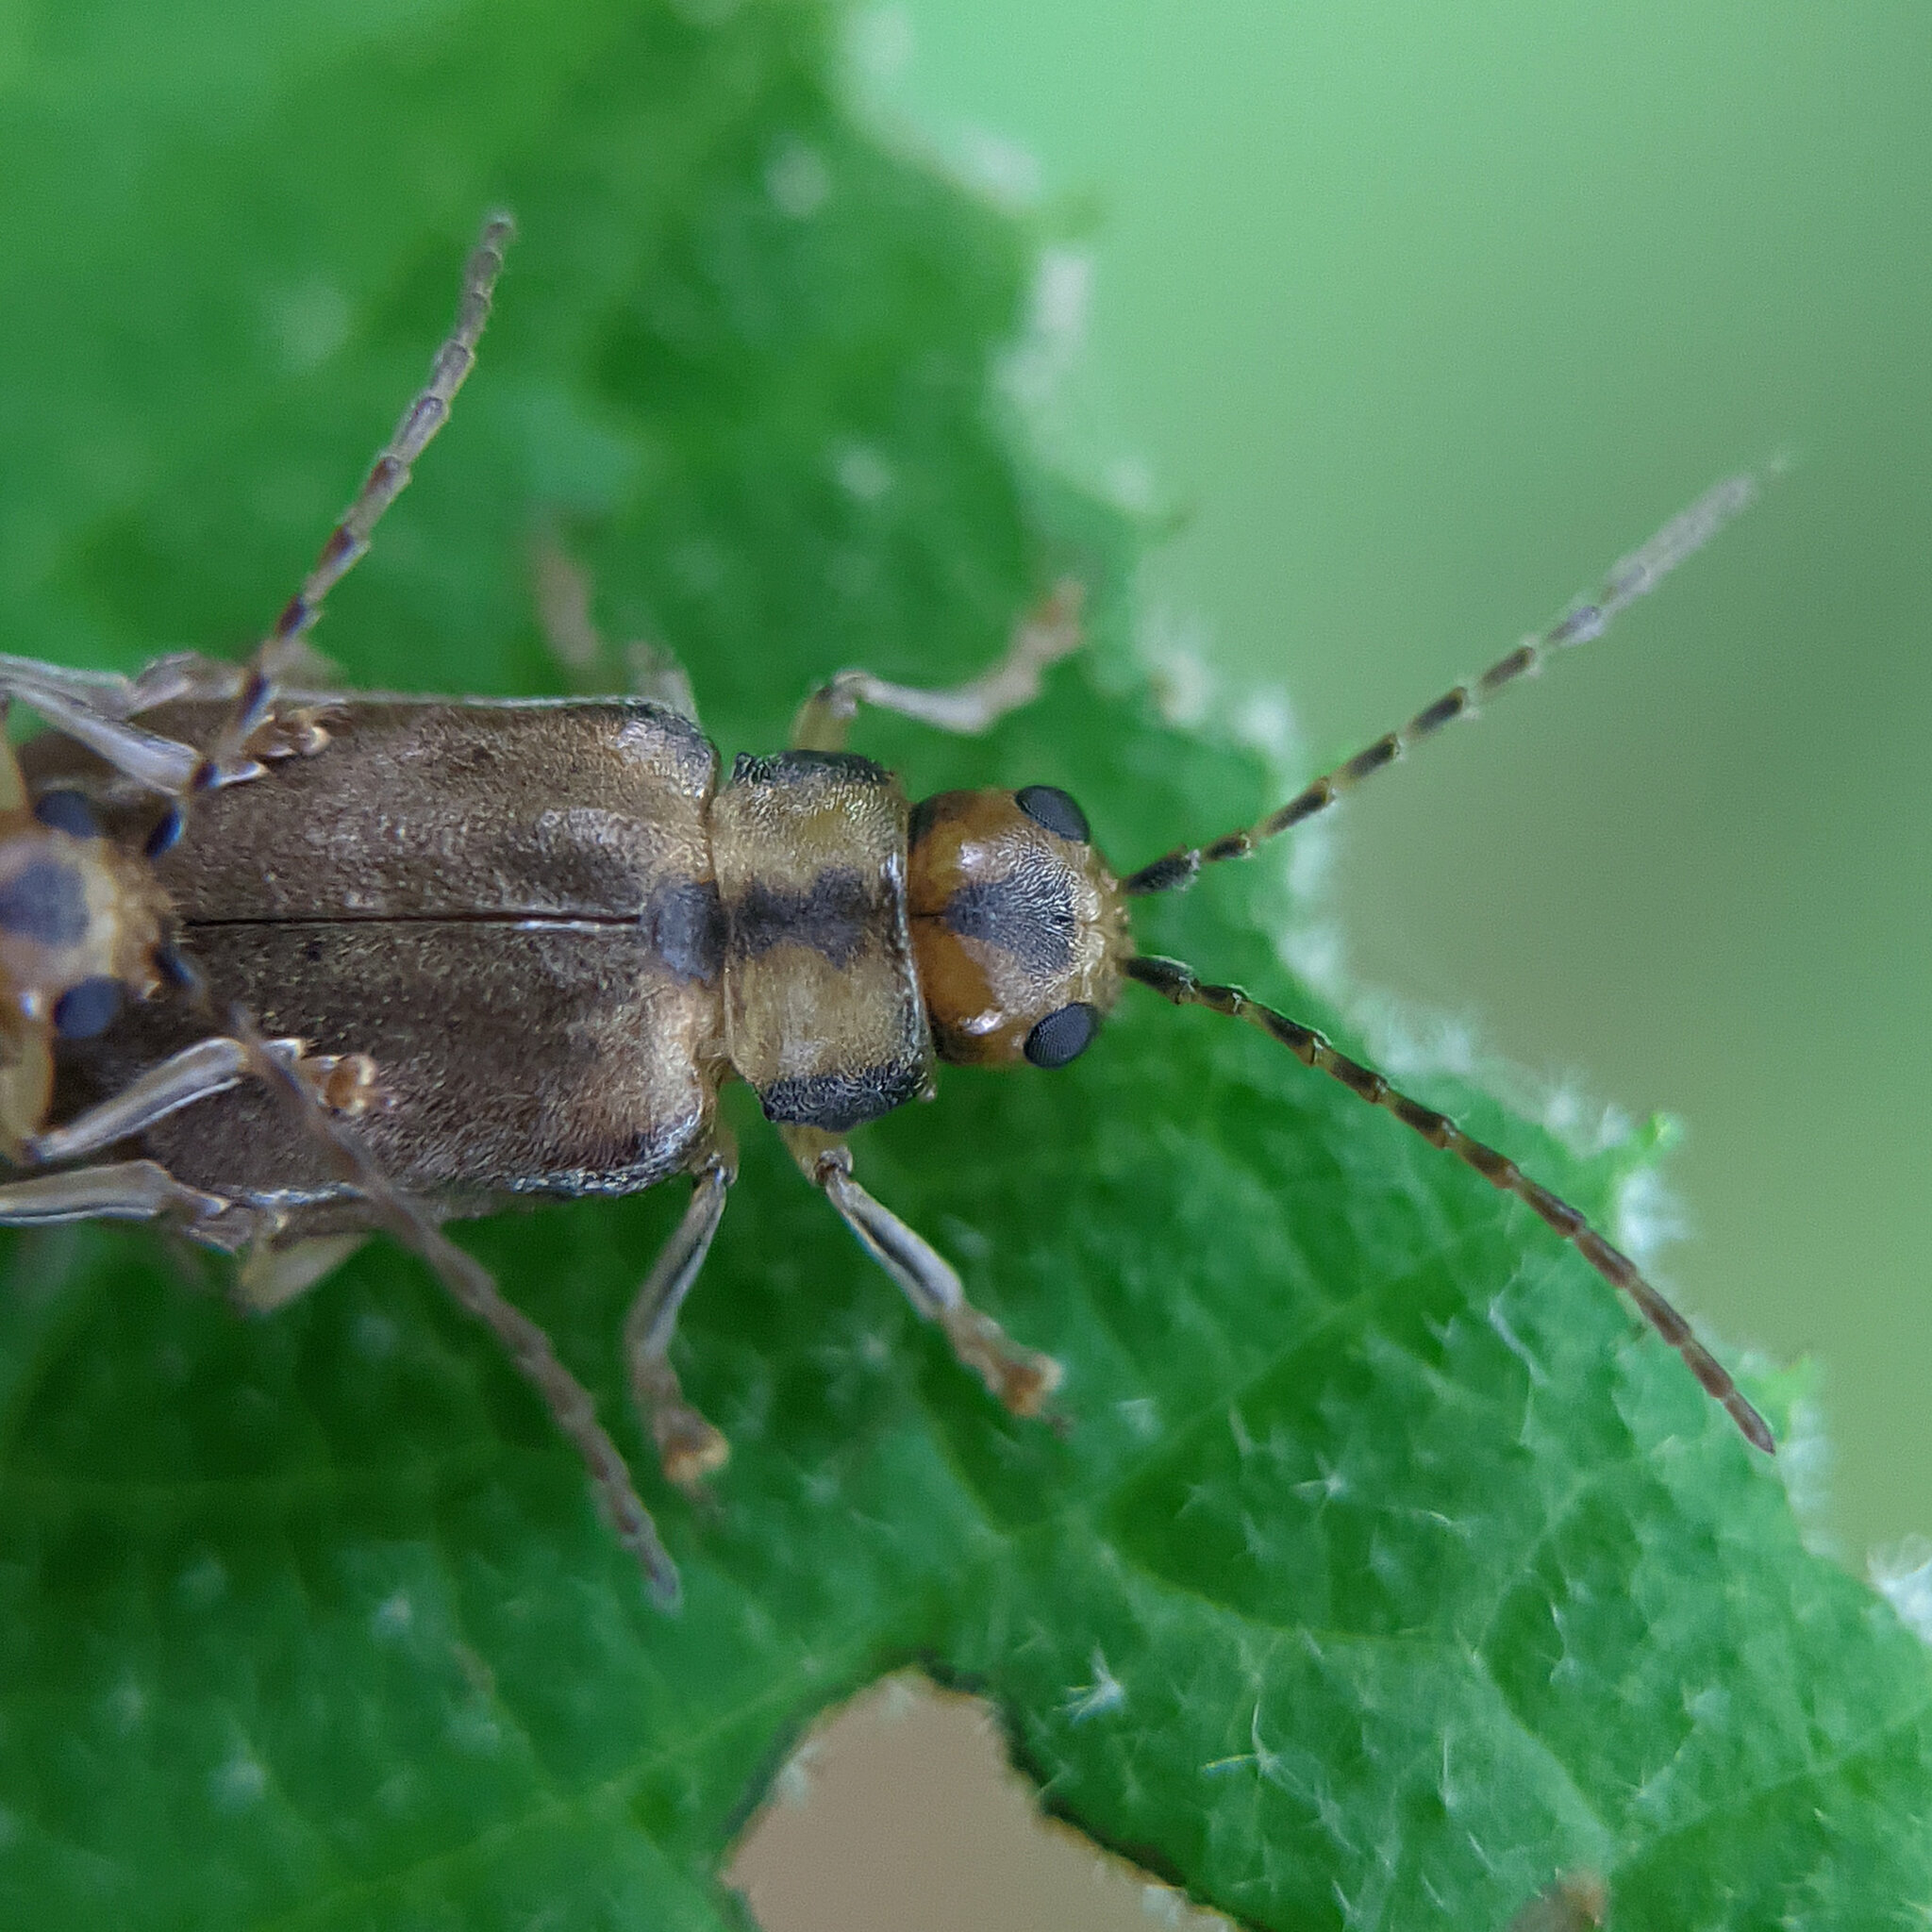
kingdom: Animalia
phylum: Arthropoda
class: Insecta
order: Coleoptera
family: Chrysomelidae
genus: Pyrrhalta
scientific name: Pyrrhalta viburni
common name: Guelder-rose leaf beetle
